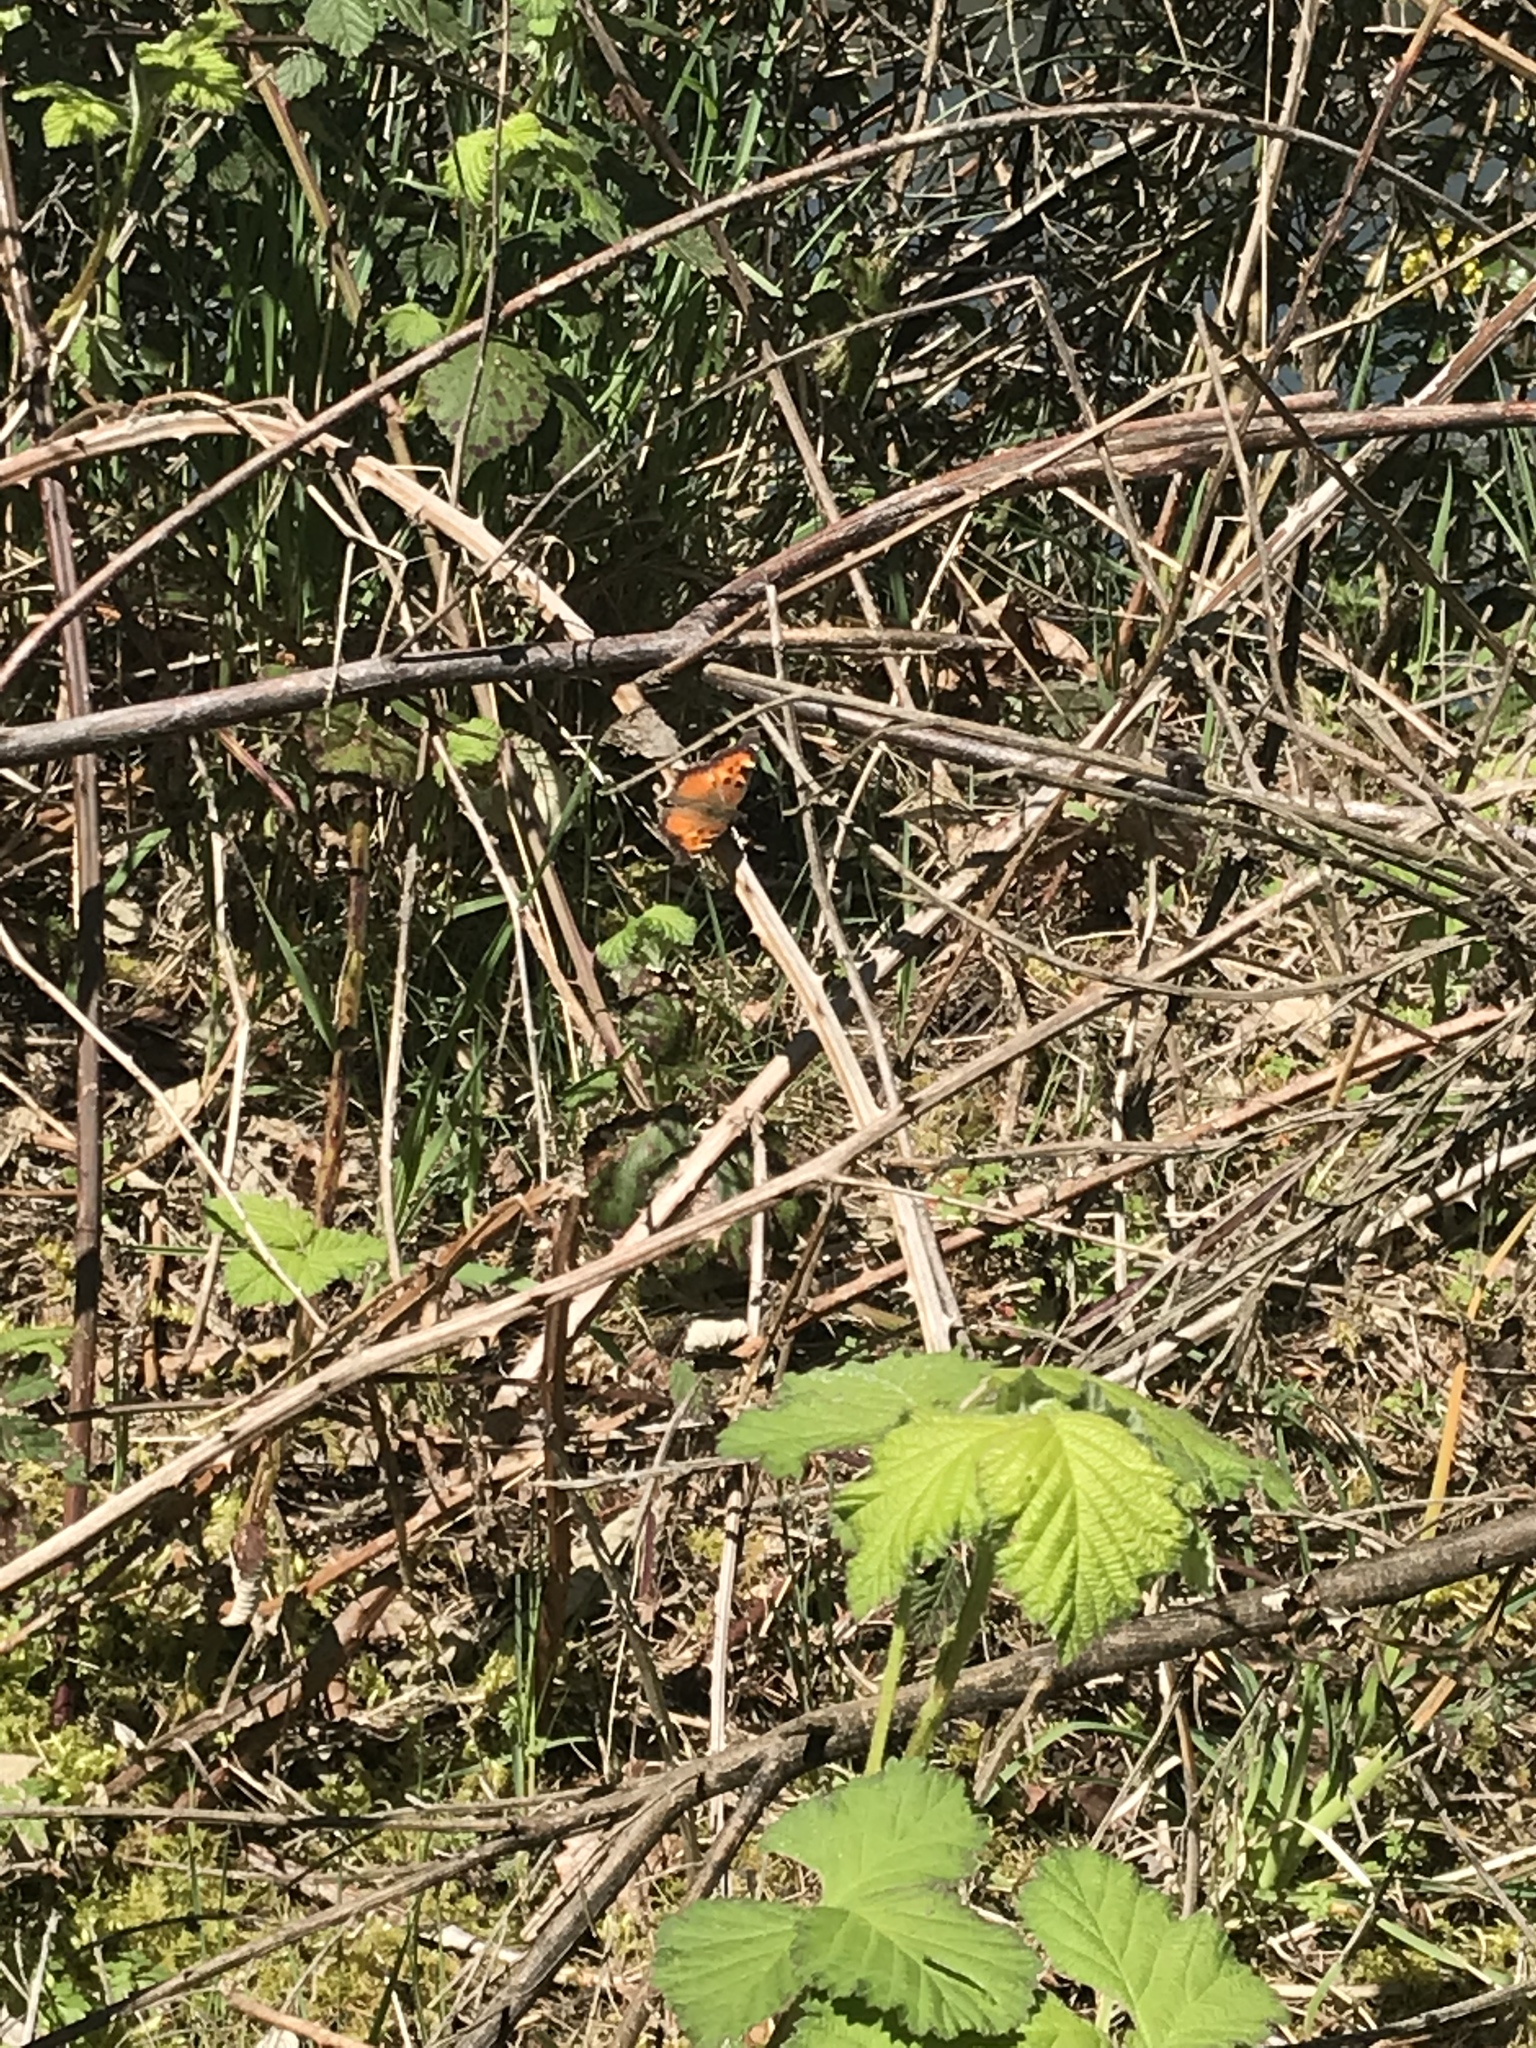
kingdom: Animalia
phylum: Arthropoda
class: Insecta
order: Lepidoptera
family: Nymphalidae
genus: Nymphalis
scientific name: Nymphalis californica
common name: California tortoiseshell
